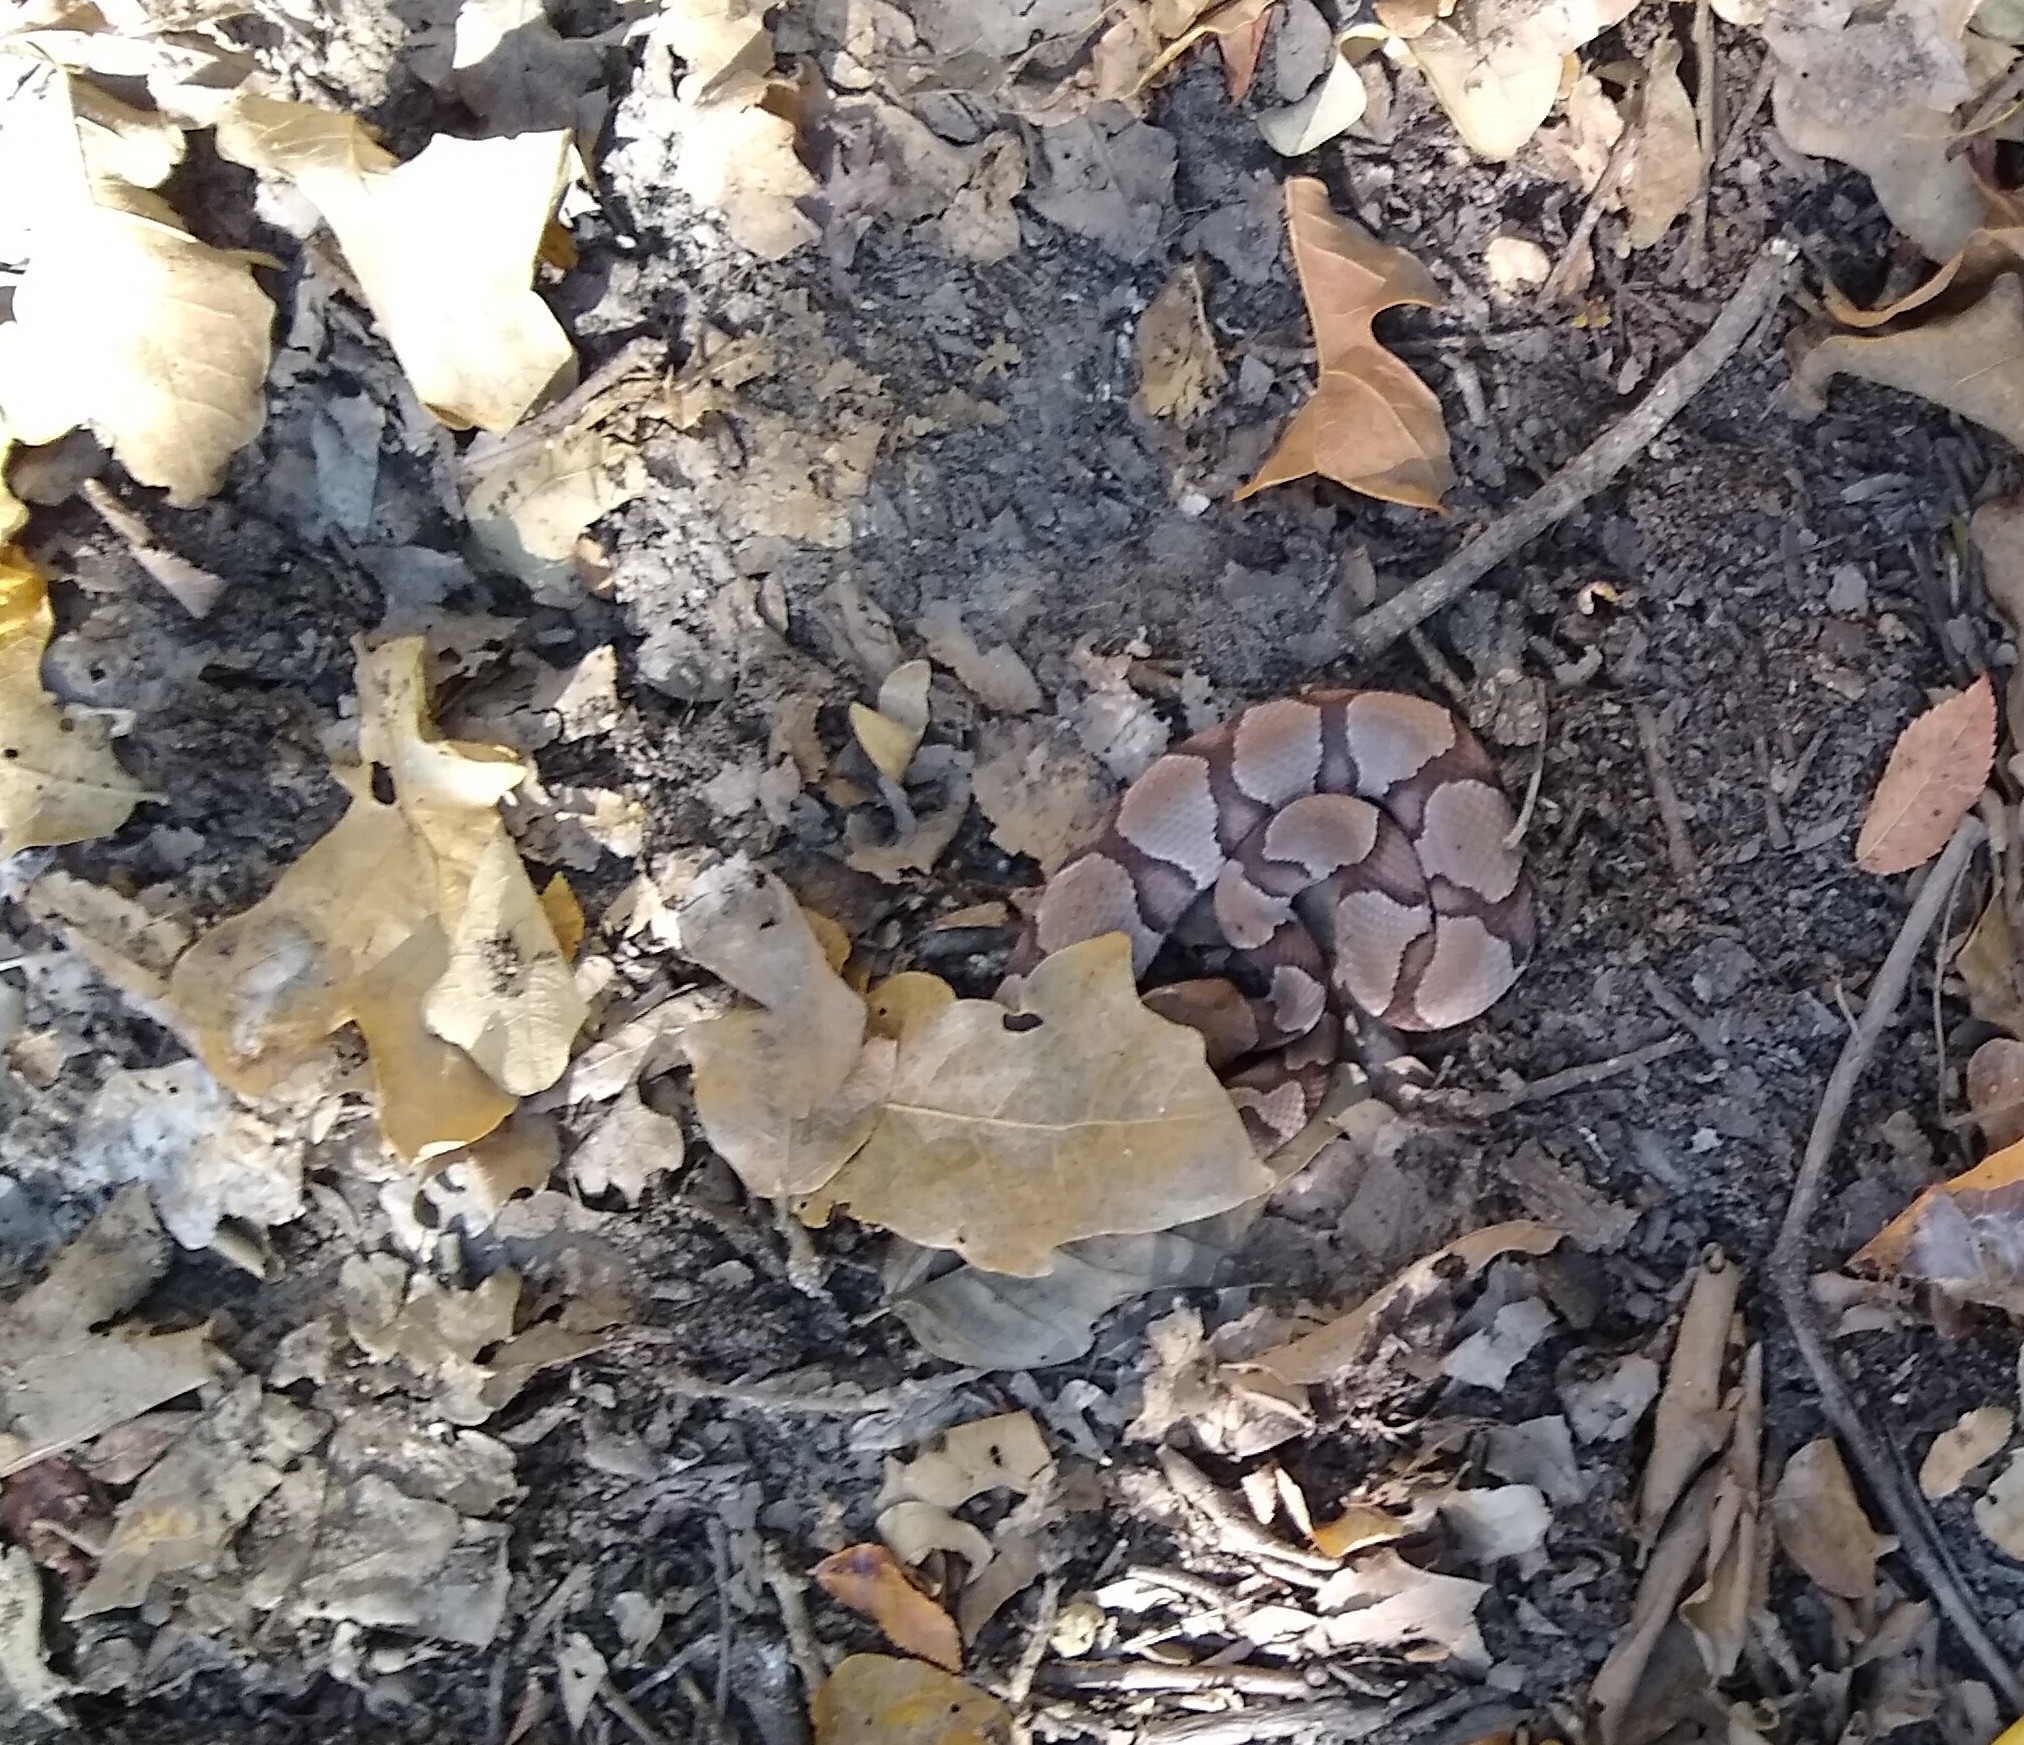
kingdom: Animalia
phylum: Chordata
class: Squamata
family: Viperidae
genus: Agkistrodon
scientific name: Agkistrodon contortrix
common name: Northern copperhead
